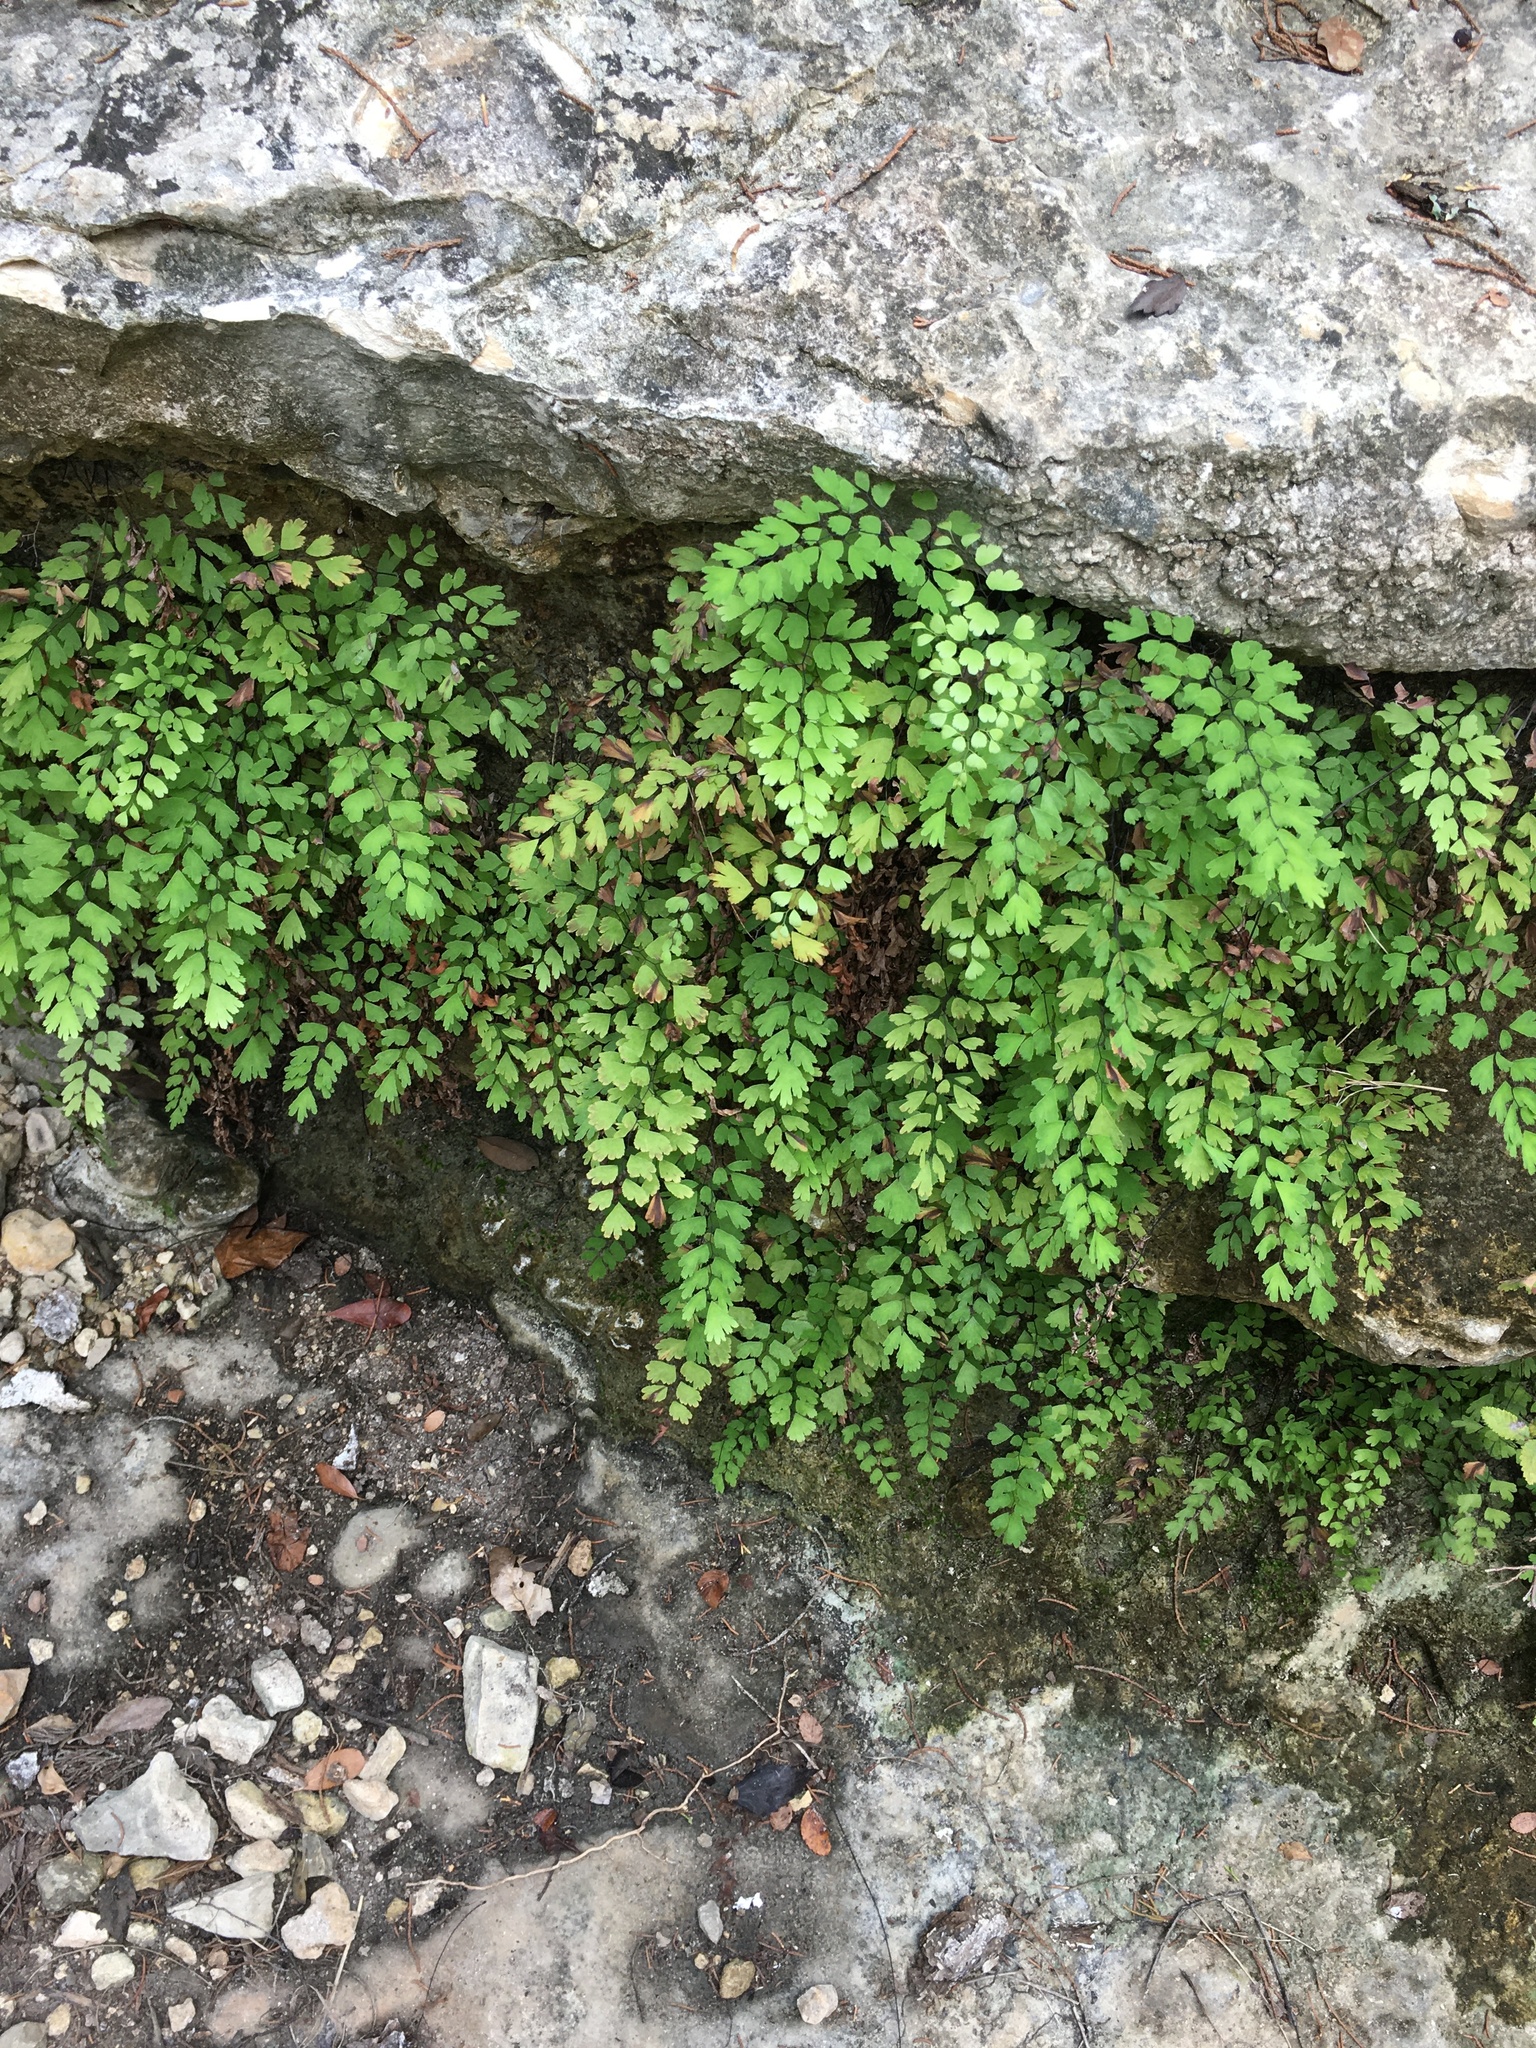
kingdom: Plantae
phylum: Tracheophyta
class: Polypodiopsida
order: Polypodiales
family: Pteridaceae
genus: Adiantum
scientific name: Adiantum capillus-veneris
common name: Maidenhair fern
